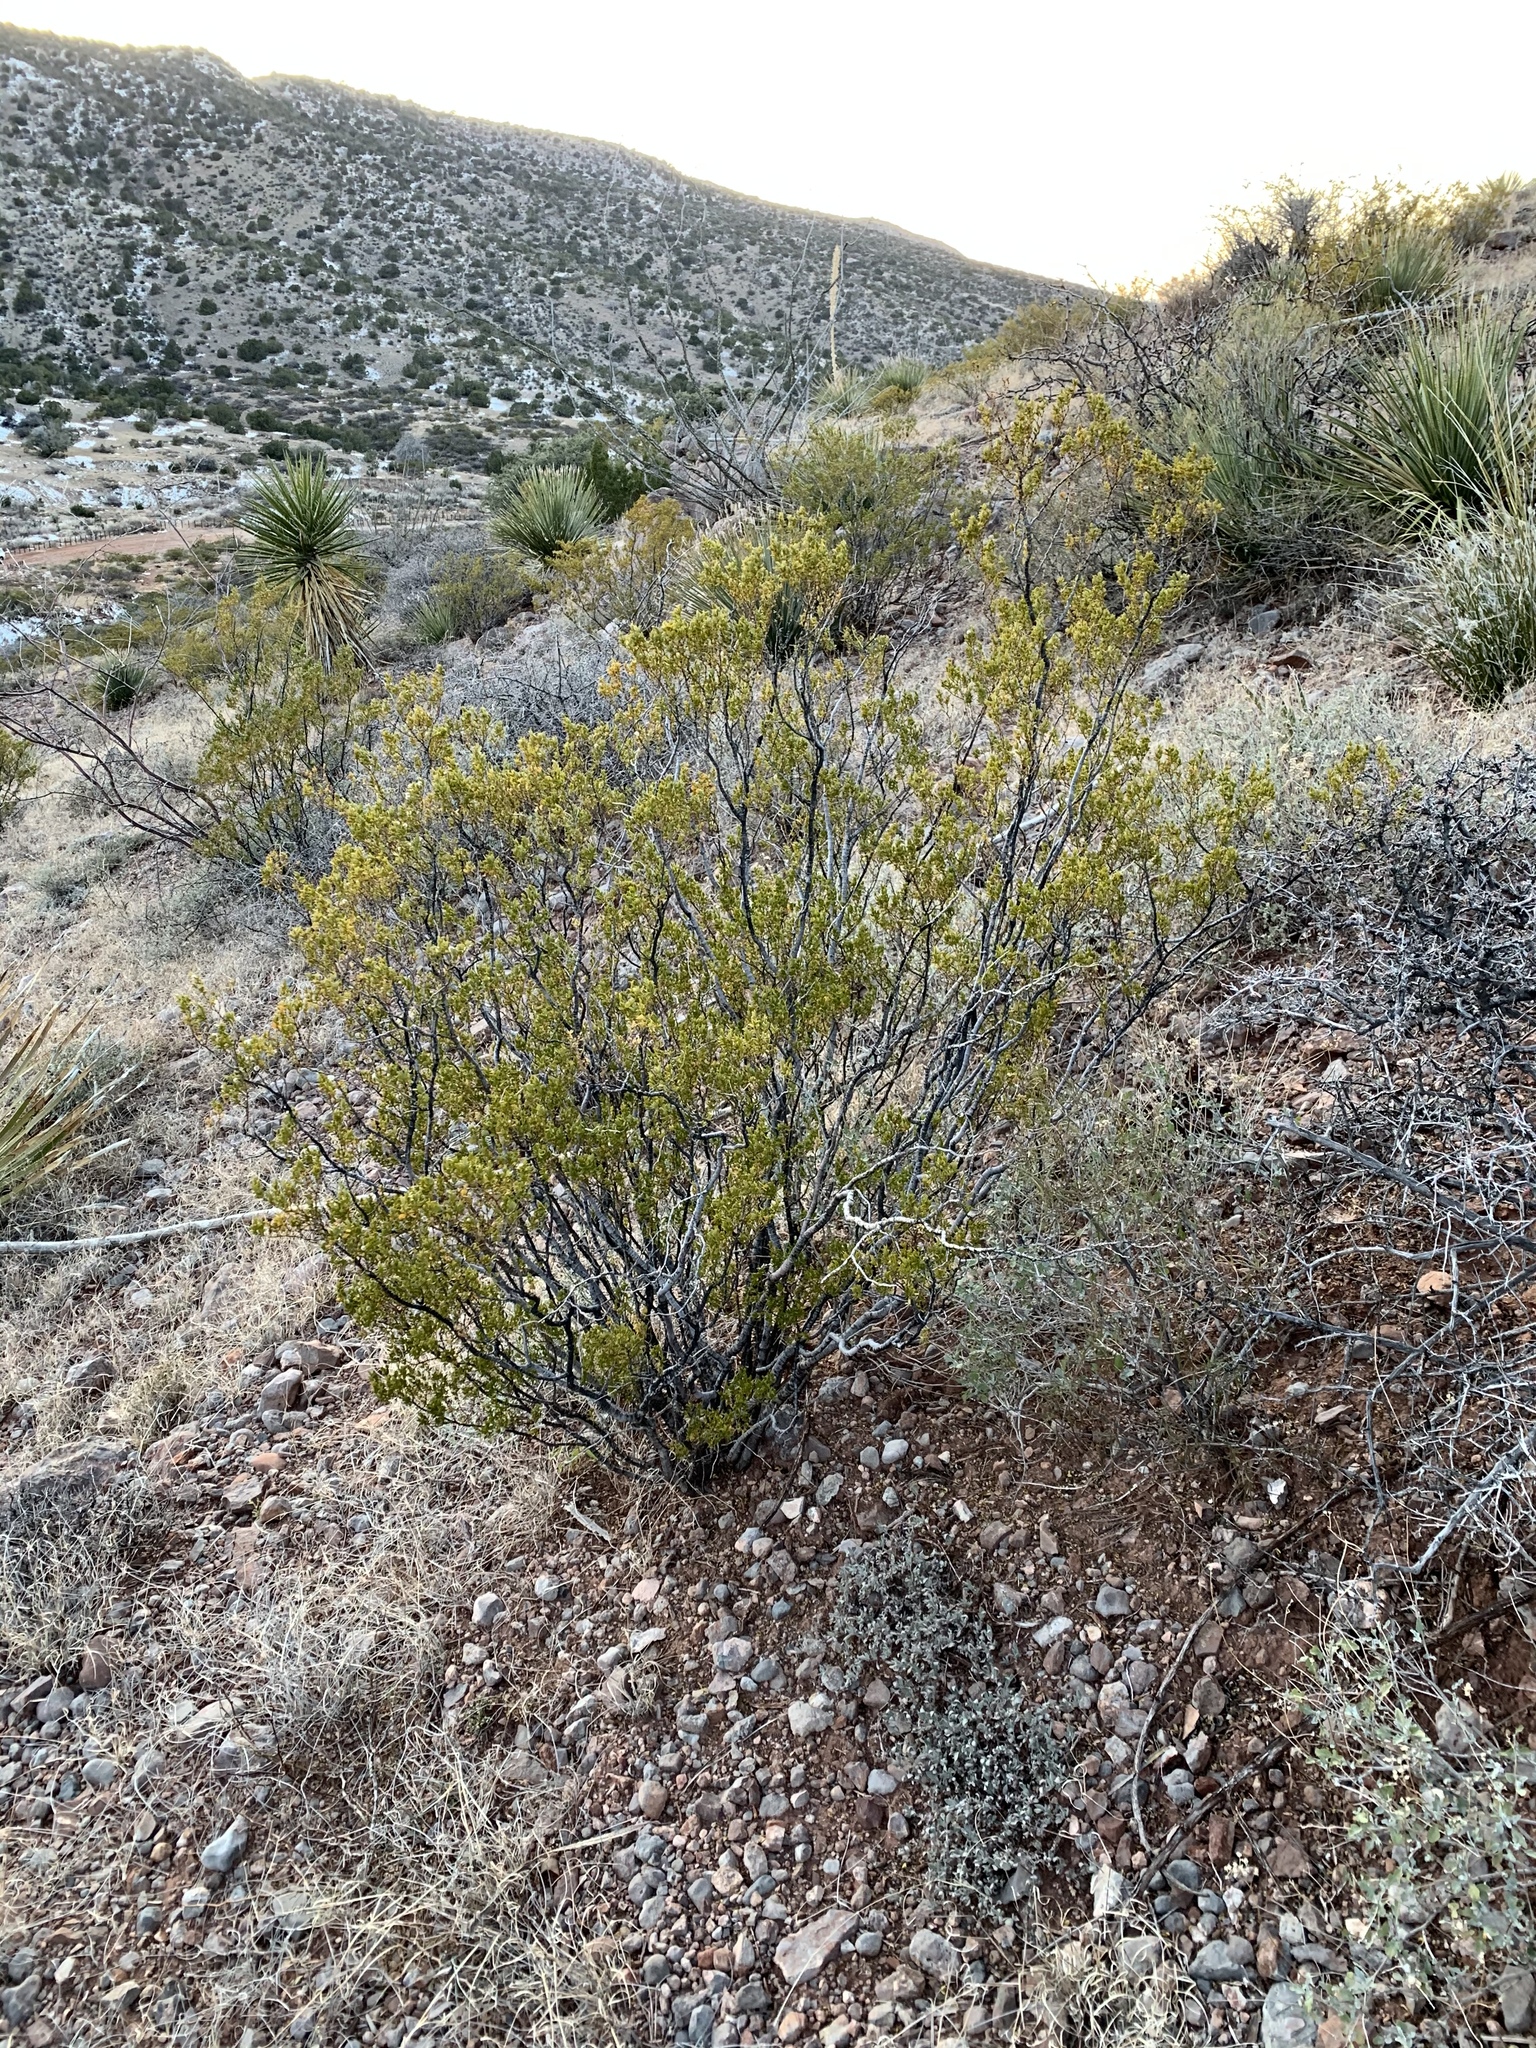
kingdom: Plantae
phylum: Tracheophyta
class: Magnoliopsida
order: Zygophyllales
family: Zygophyllaceae
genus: Larrea
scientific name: Larrea tridentata
